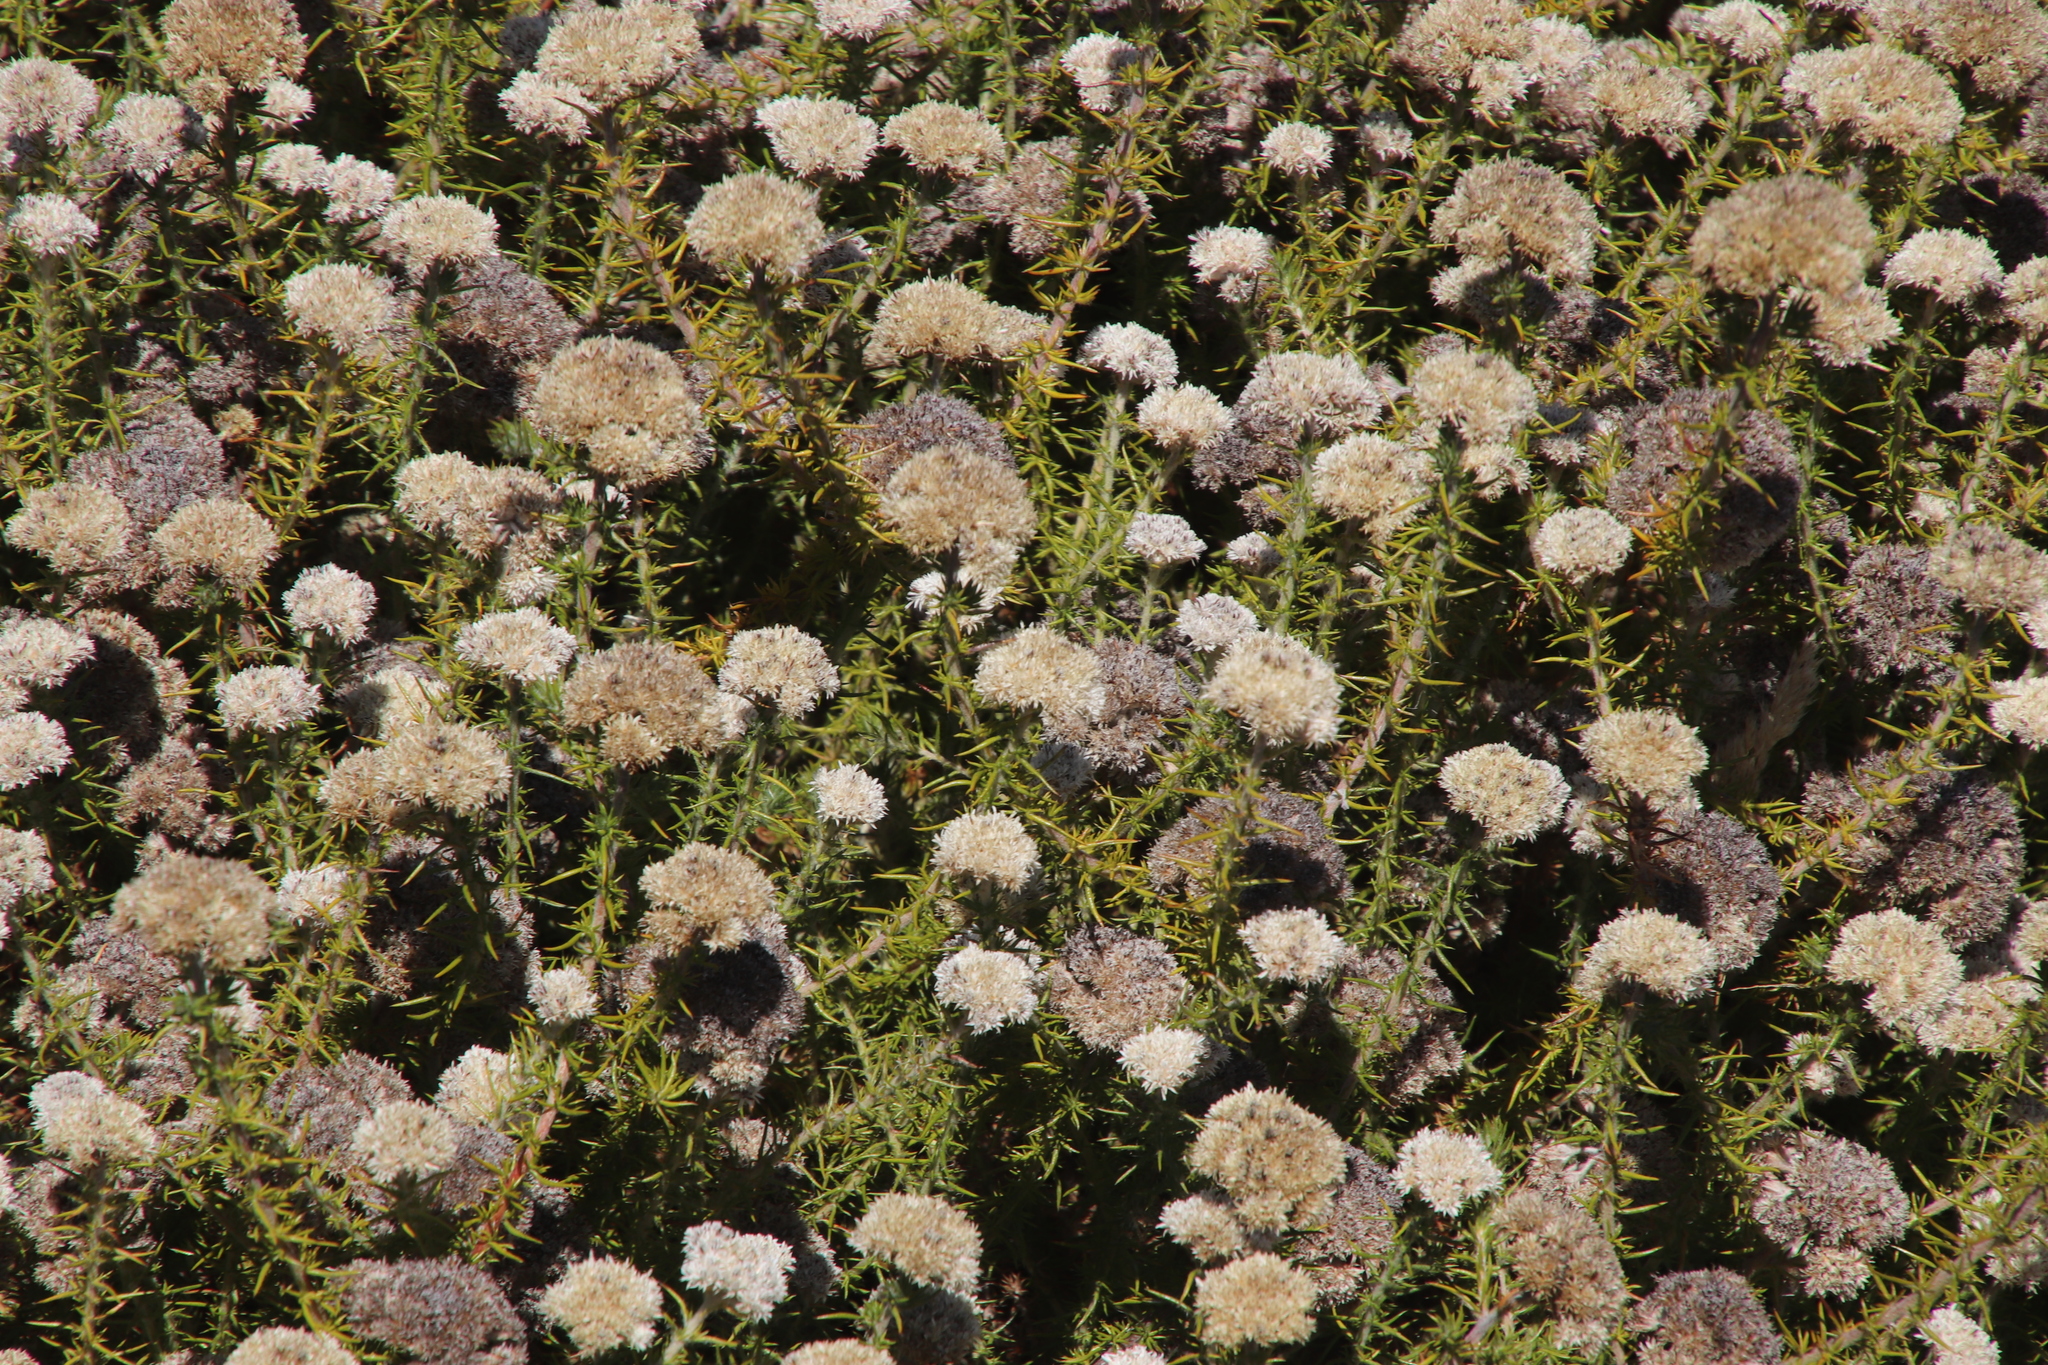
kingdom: Plantae
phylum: Tracheophyta
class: Magnoliopsida
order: Asterales
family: Asteraceae
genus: Metalasia
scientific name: Metalasia pulchella
